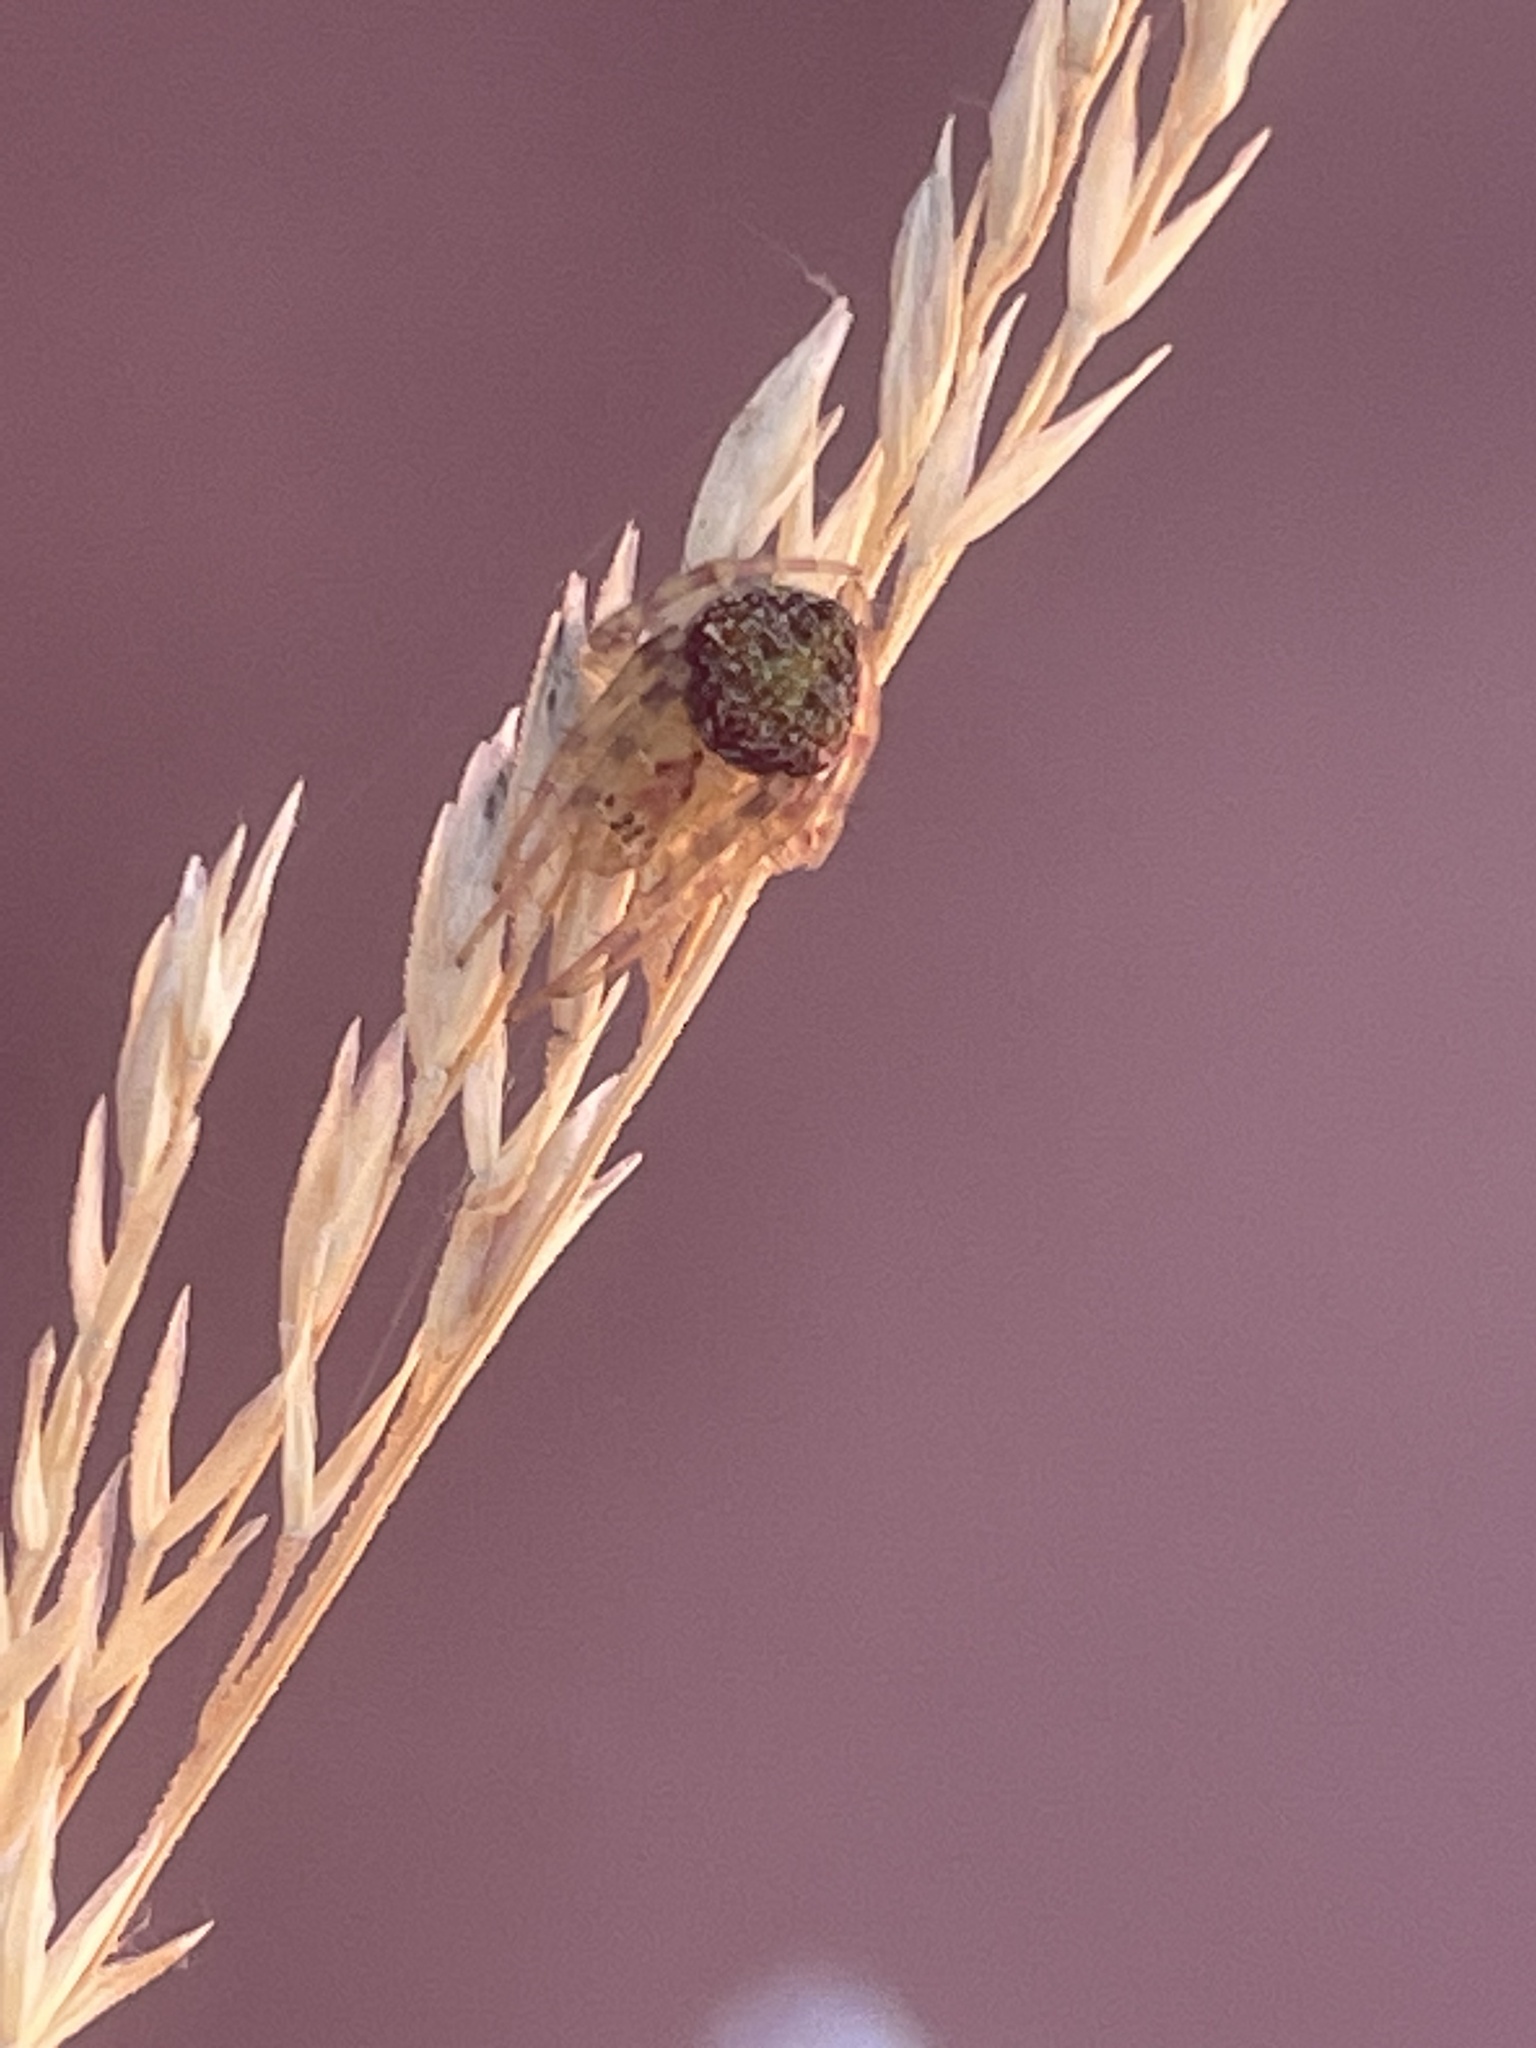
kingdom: Animalia
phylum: Arthropoda
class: Arachnida
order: Araneae
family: Araneidae
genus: Araneus
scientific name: Araneus circulissparsus
